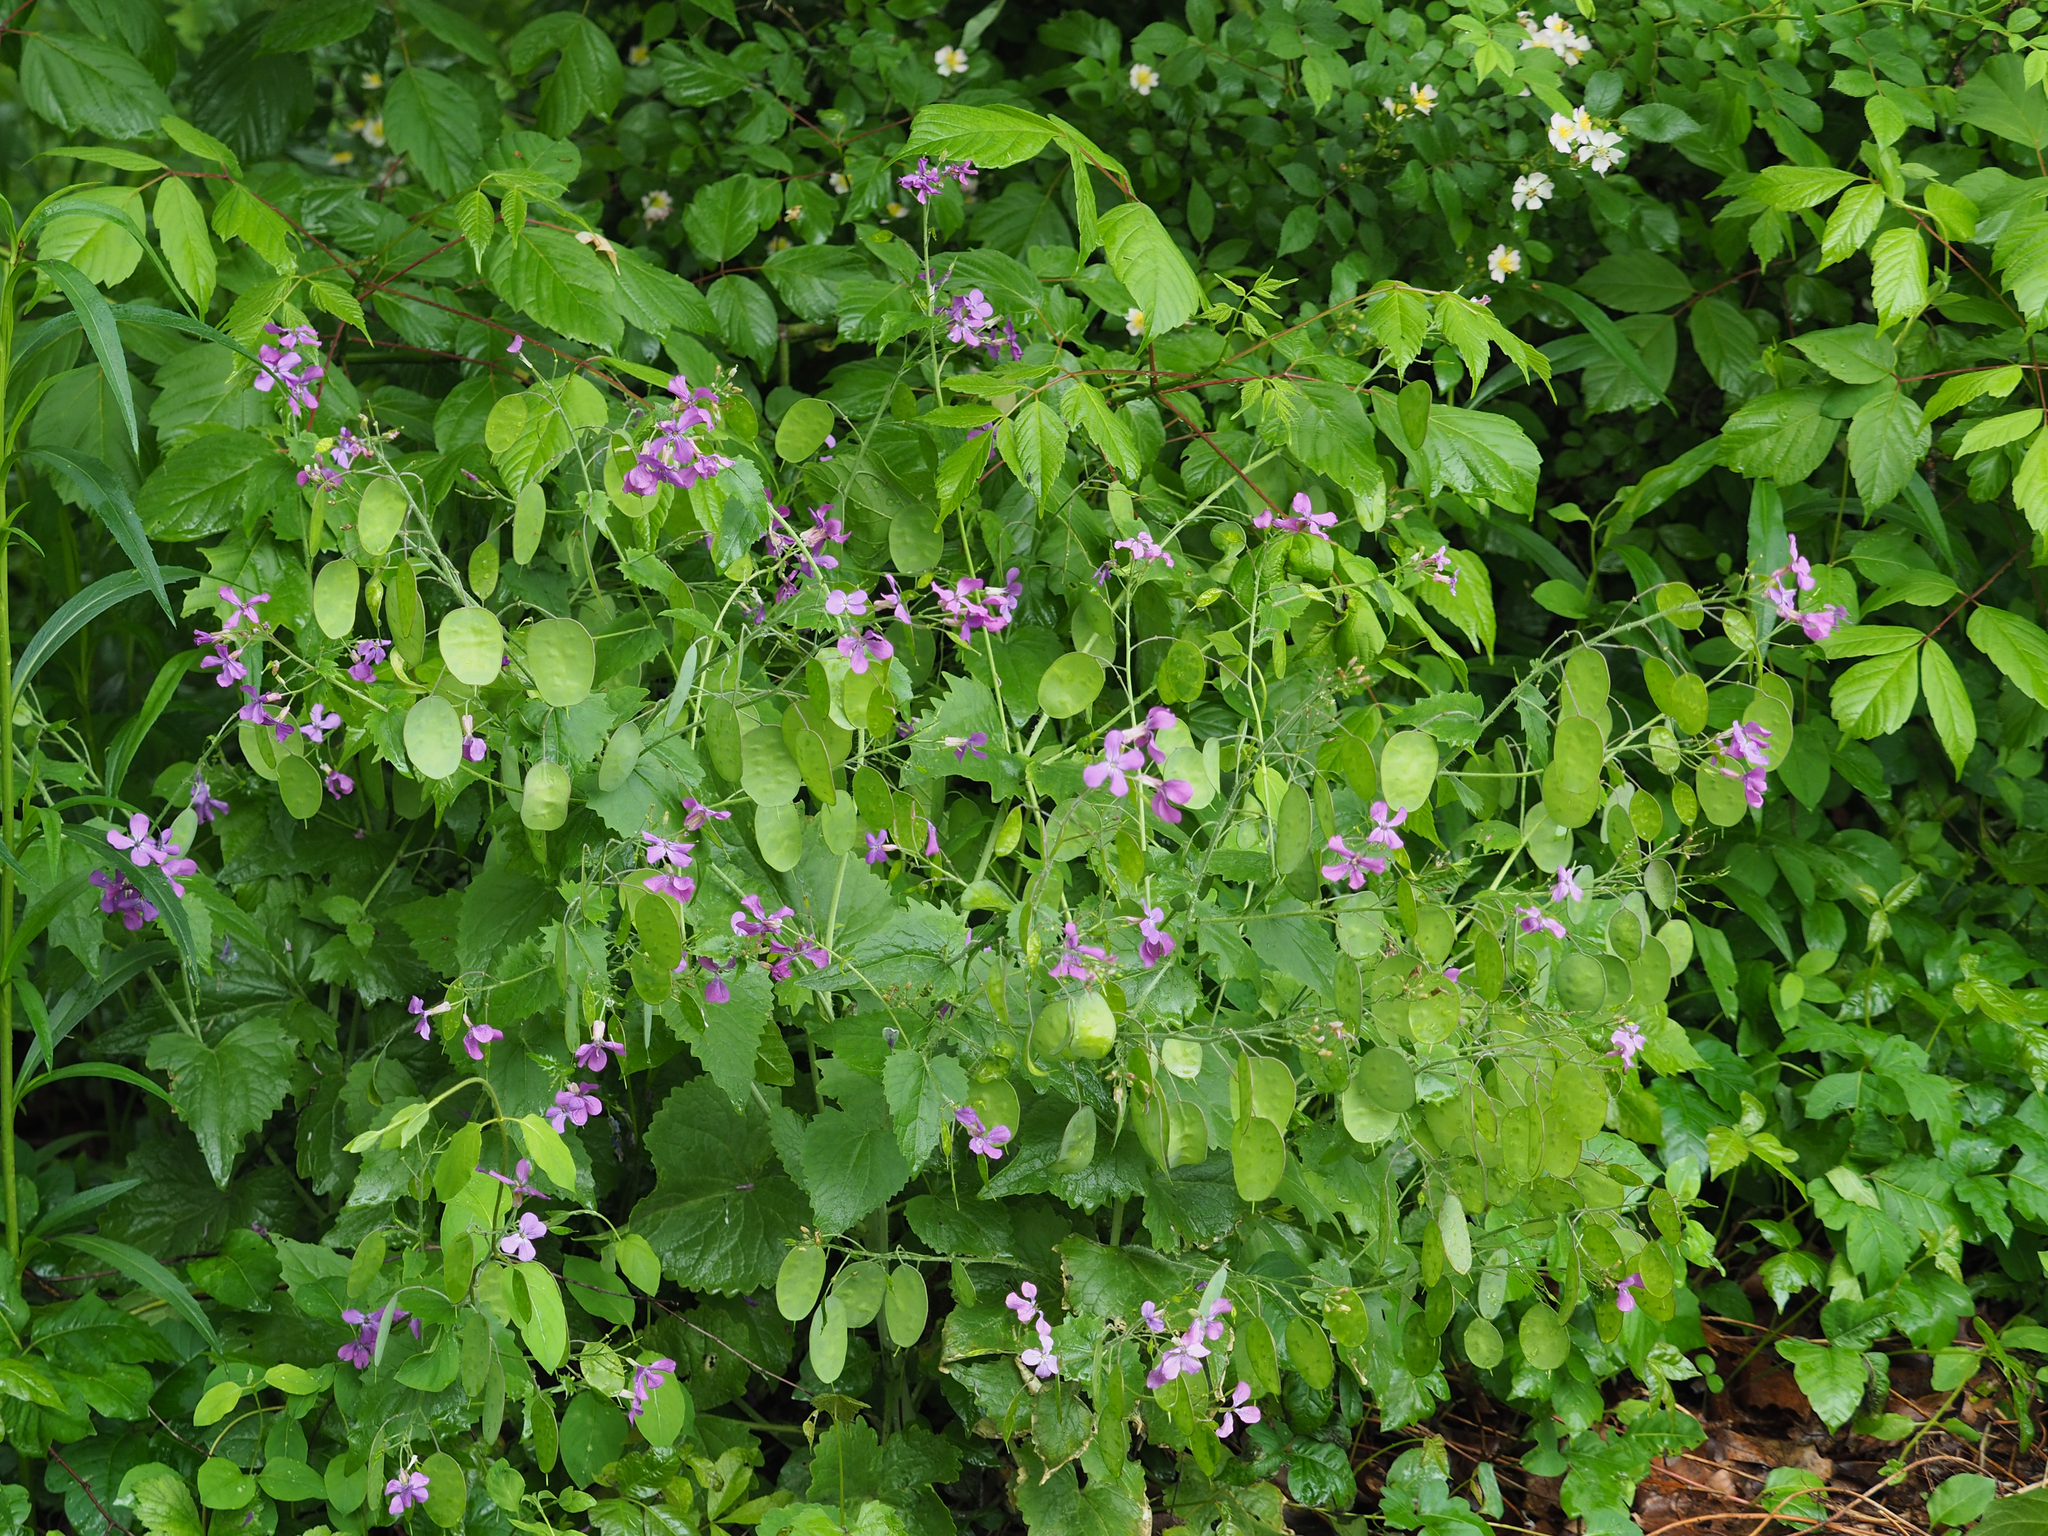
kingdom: Plantae
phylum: Tracheophyta
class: Magnoliopsida
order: Brassicales
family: Brassicaceae
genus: Lunaria
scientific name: Lunaria annua
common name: Honesty
